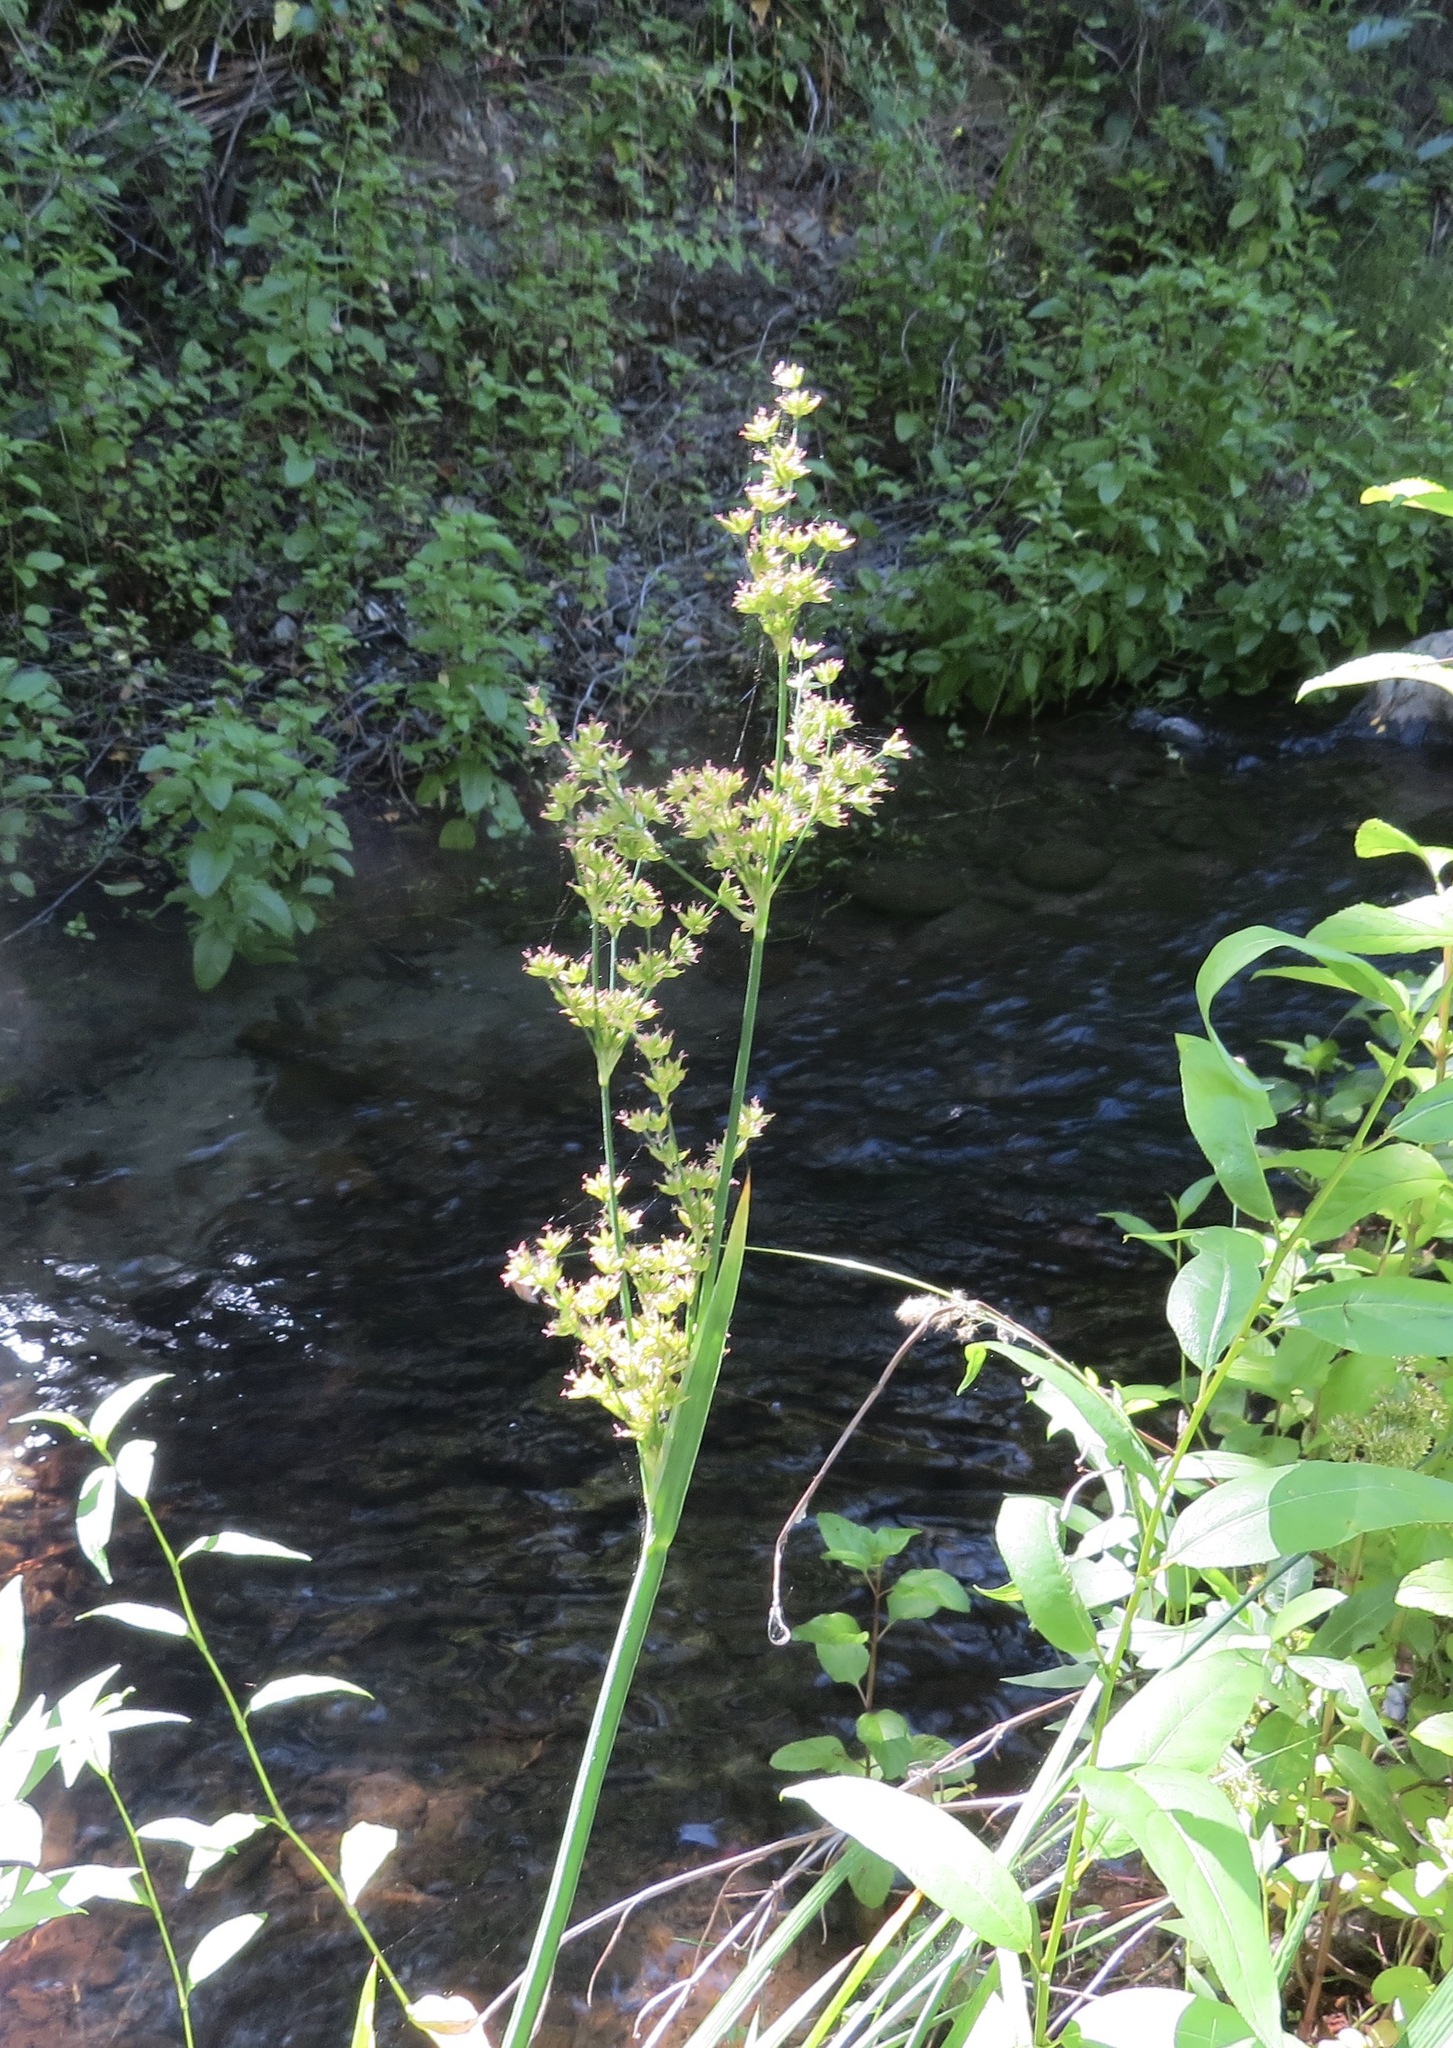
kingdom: Plantae
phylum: Tracheophyta
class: Liliopsida
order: Poales
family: Juncaceae
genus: Juncus
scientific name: Juncus xiphioides
